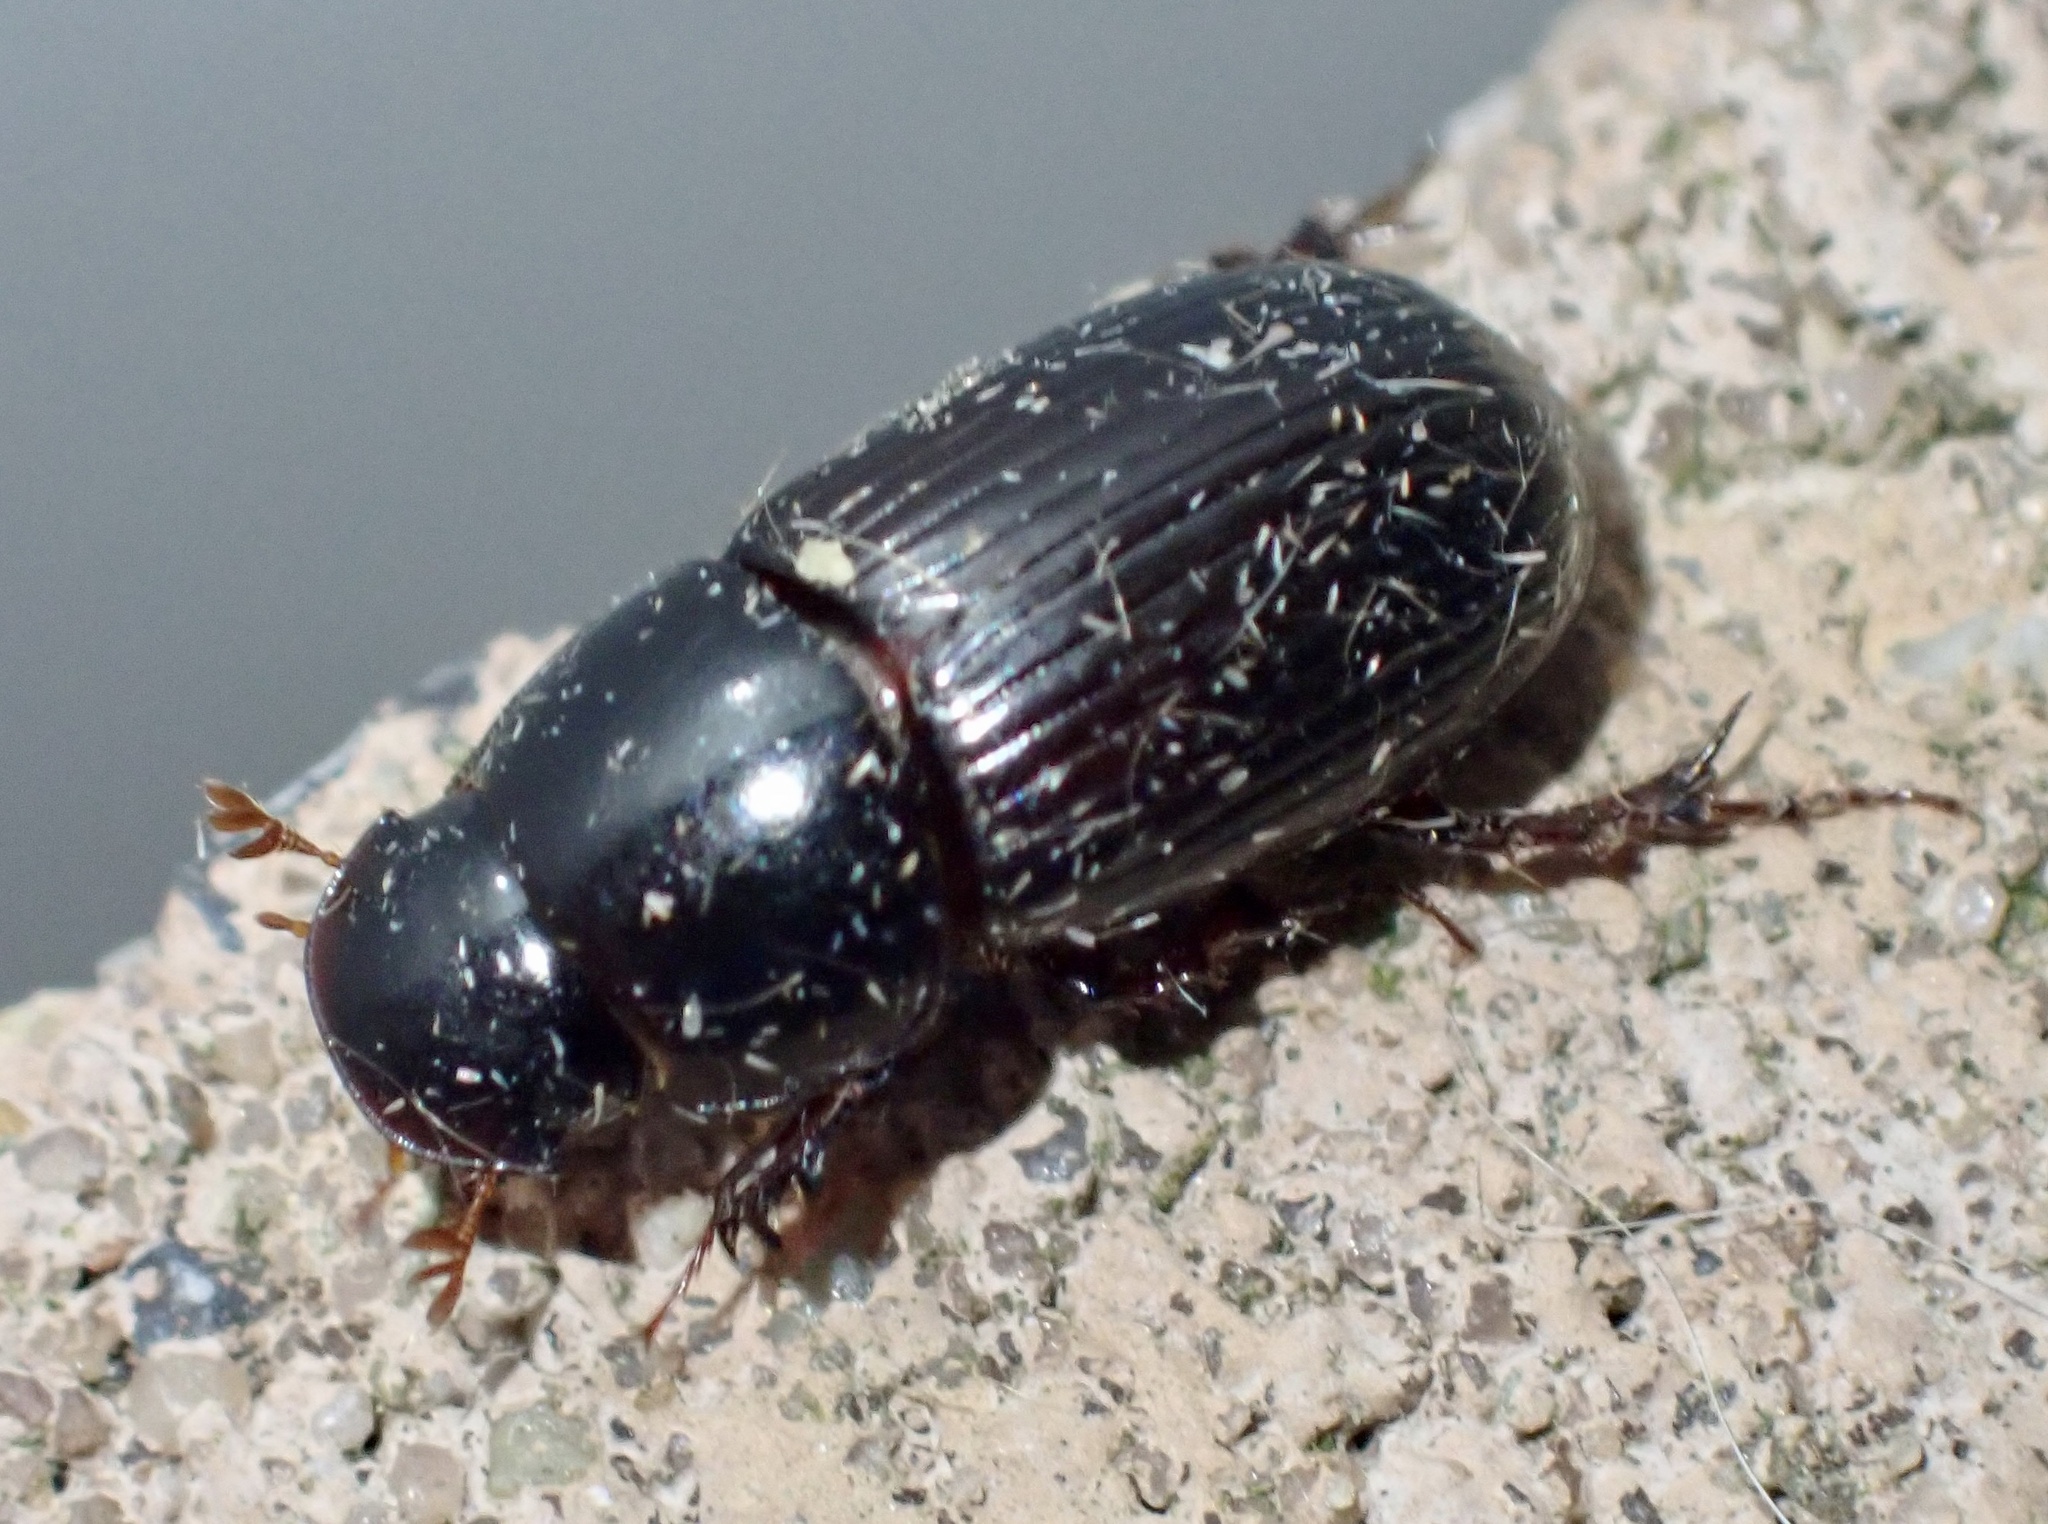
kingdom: Animalia
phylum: Arthropoda
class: Insecta
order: Coleoptera
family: Scarabaeidae
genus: Acrossus
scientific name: Acrossus rufipes
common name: Night-flying dung beetle
